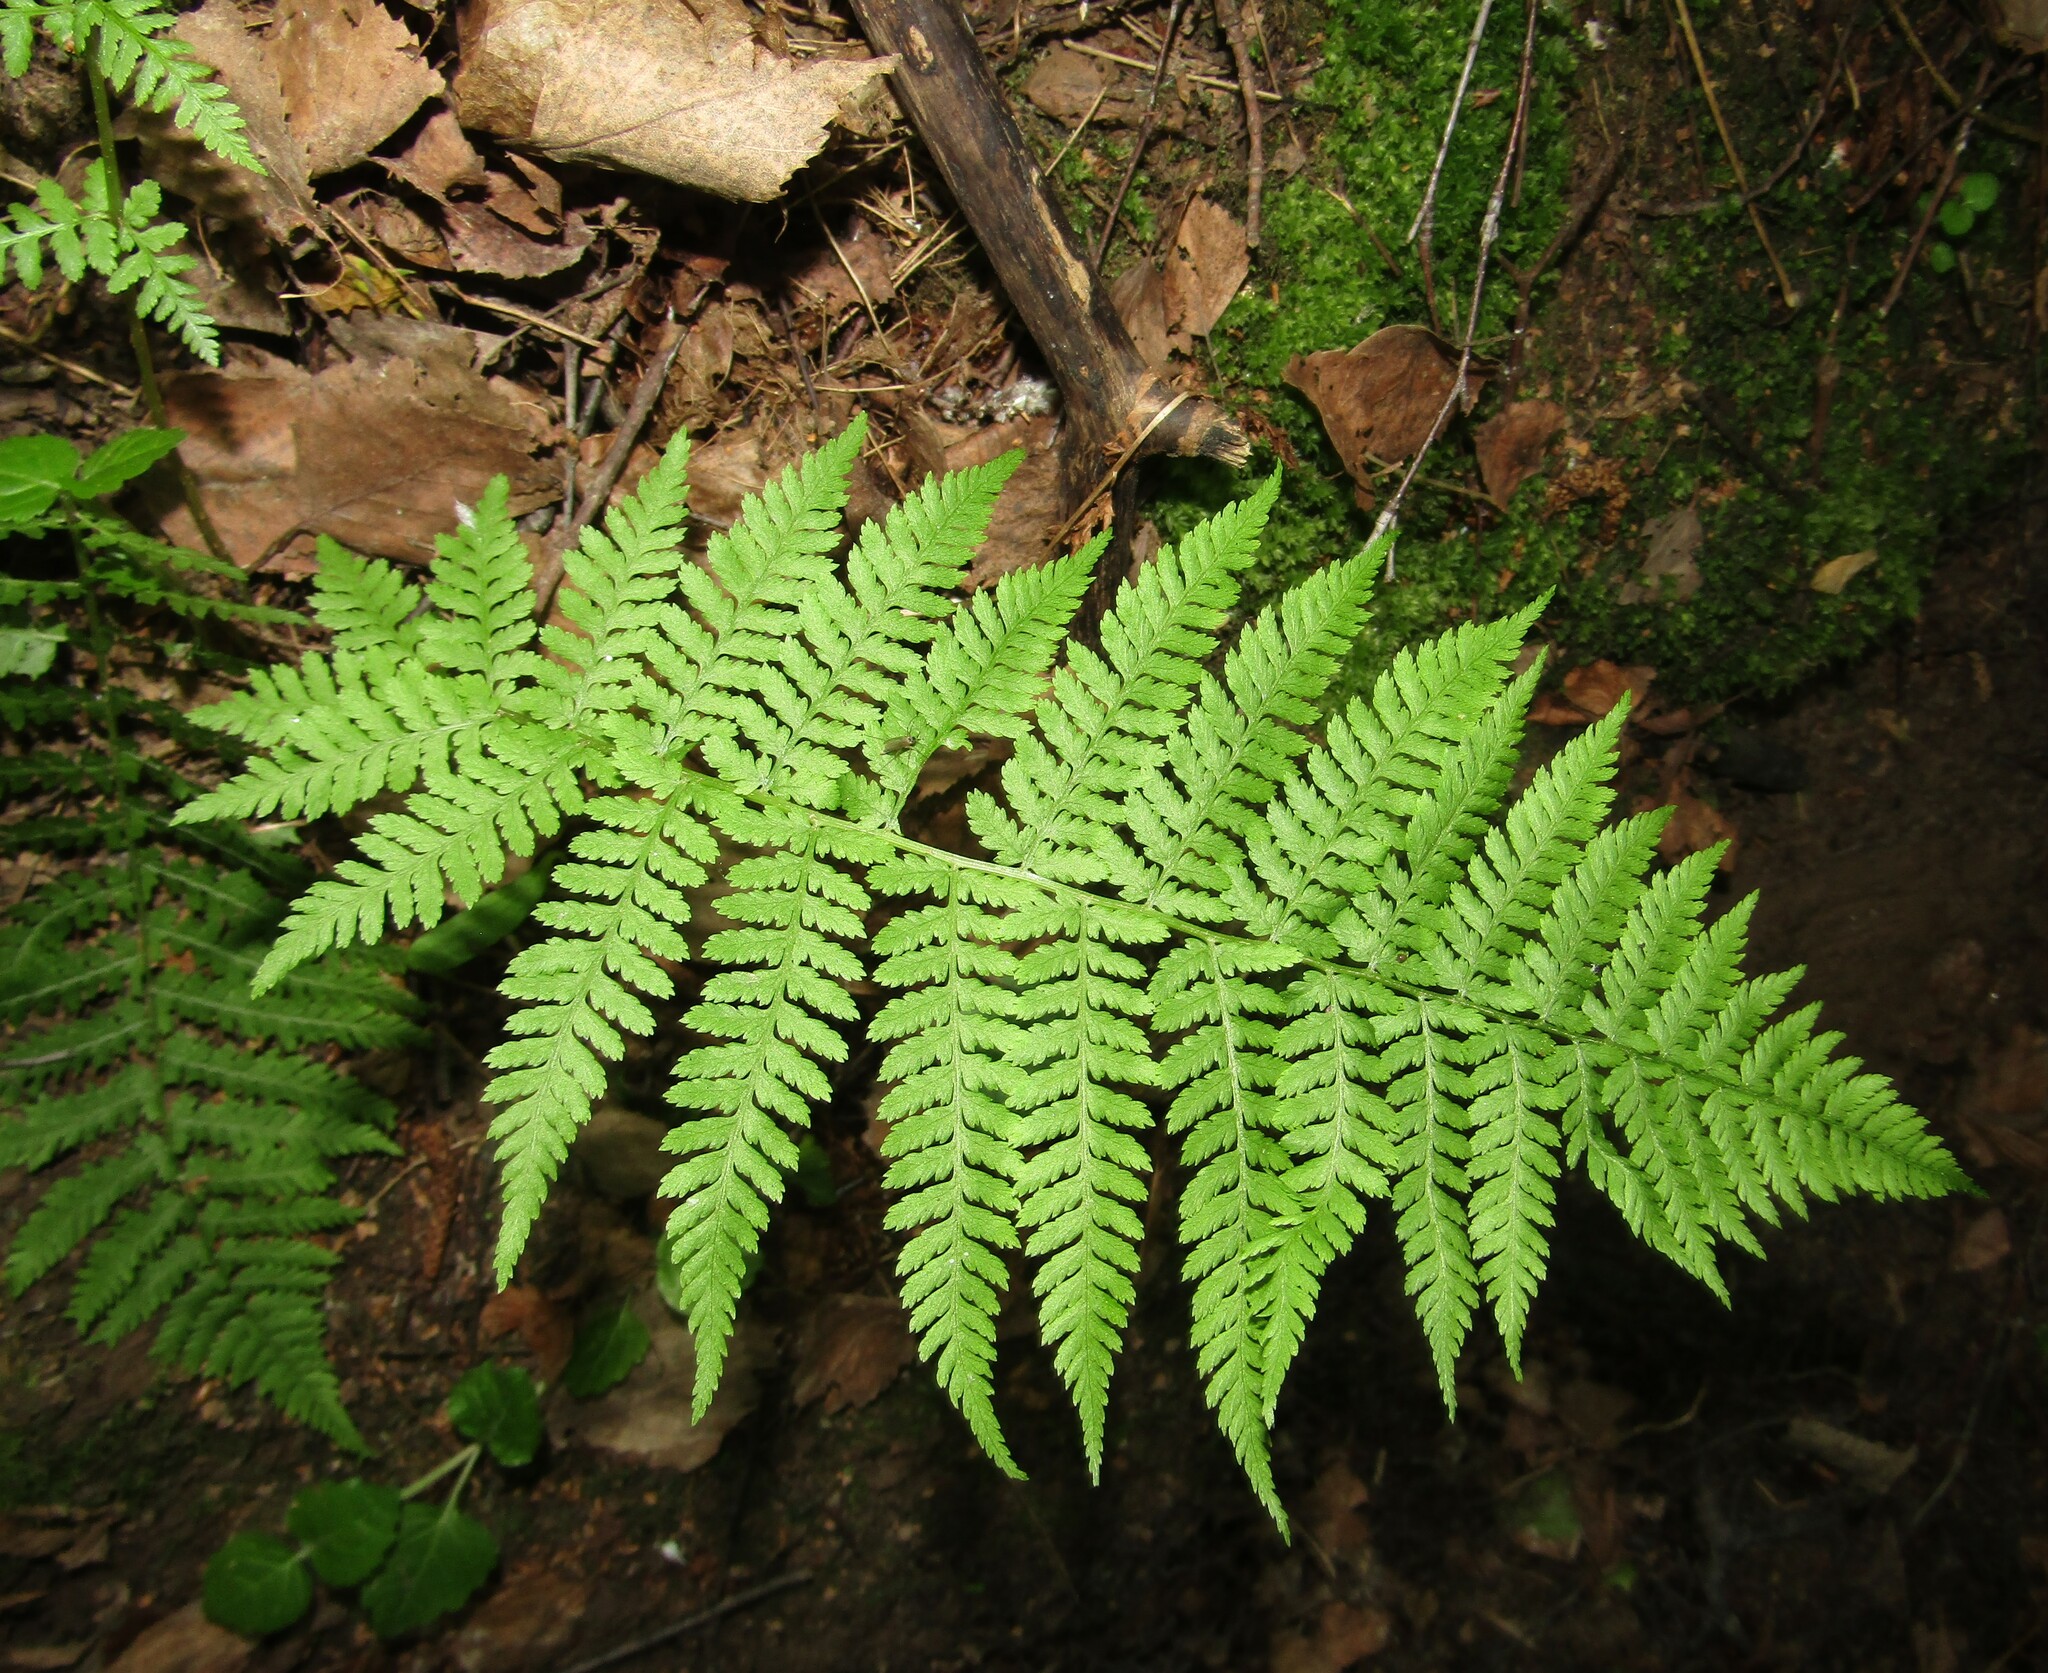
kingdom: Plantae
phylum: Tracheophyta
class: Polypodiopsida
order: Polypodiales
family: Athyriaceae
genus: Athyrium
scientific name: Athyrium filix-femina
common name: Lady fern
